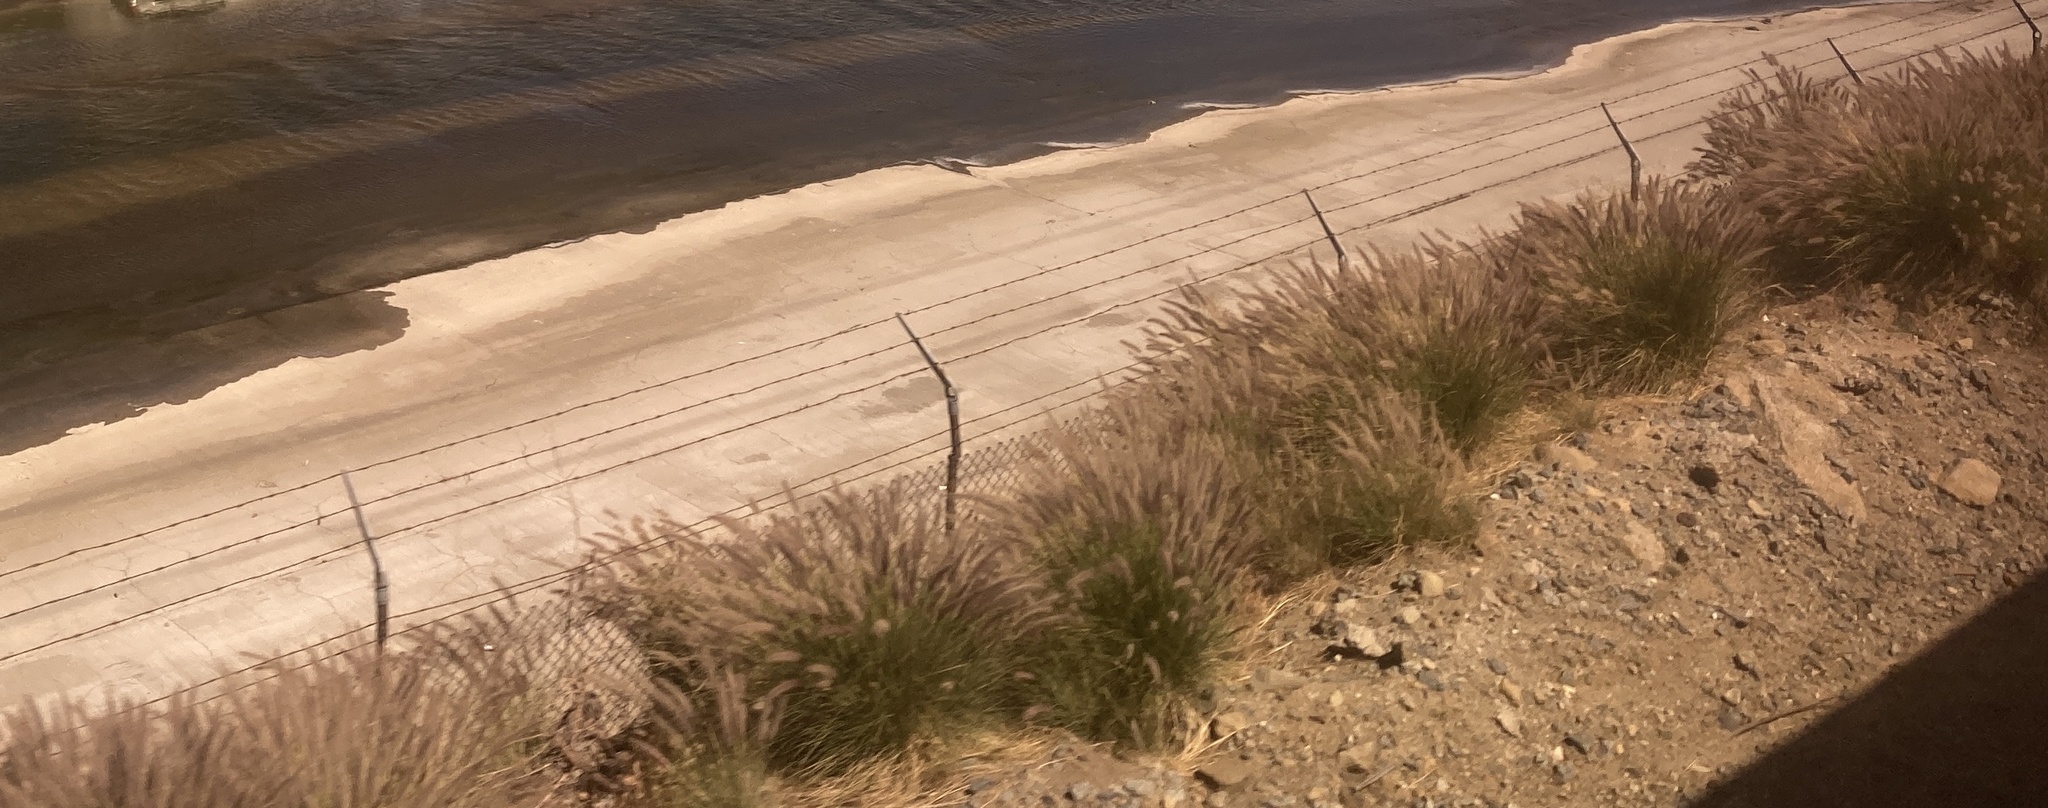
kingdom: Plantae
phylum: Tracheophyta
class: Liliopsida
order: Poales
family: Poaceae
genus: Cenchrus
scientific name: Cenchrus setaceus
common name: Crimson fountaingrass
